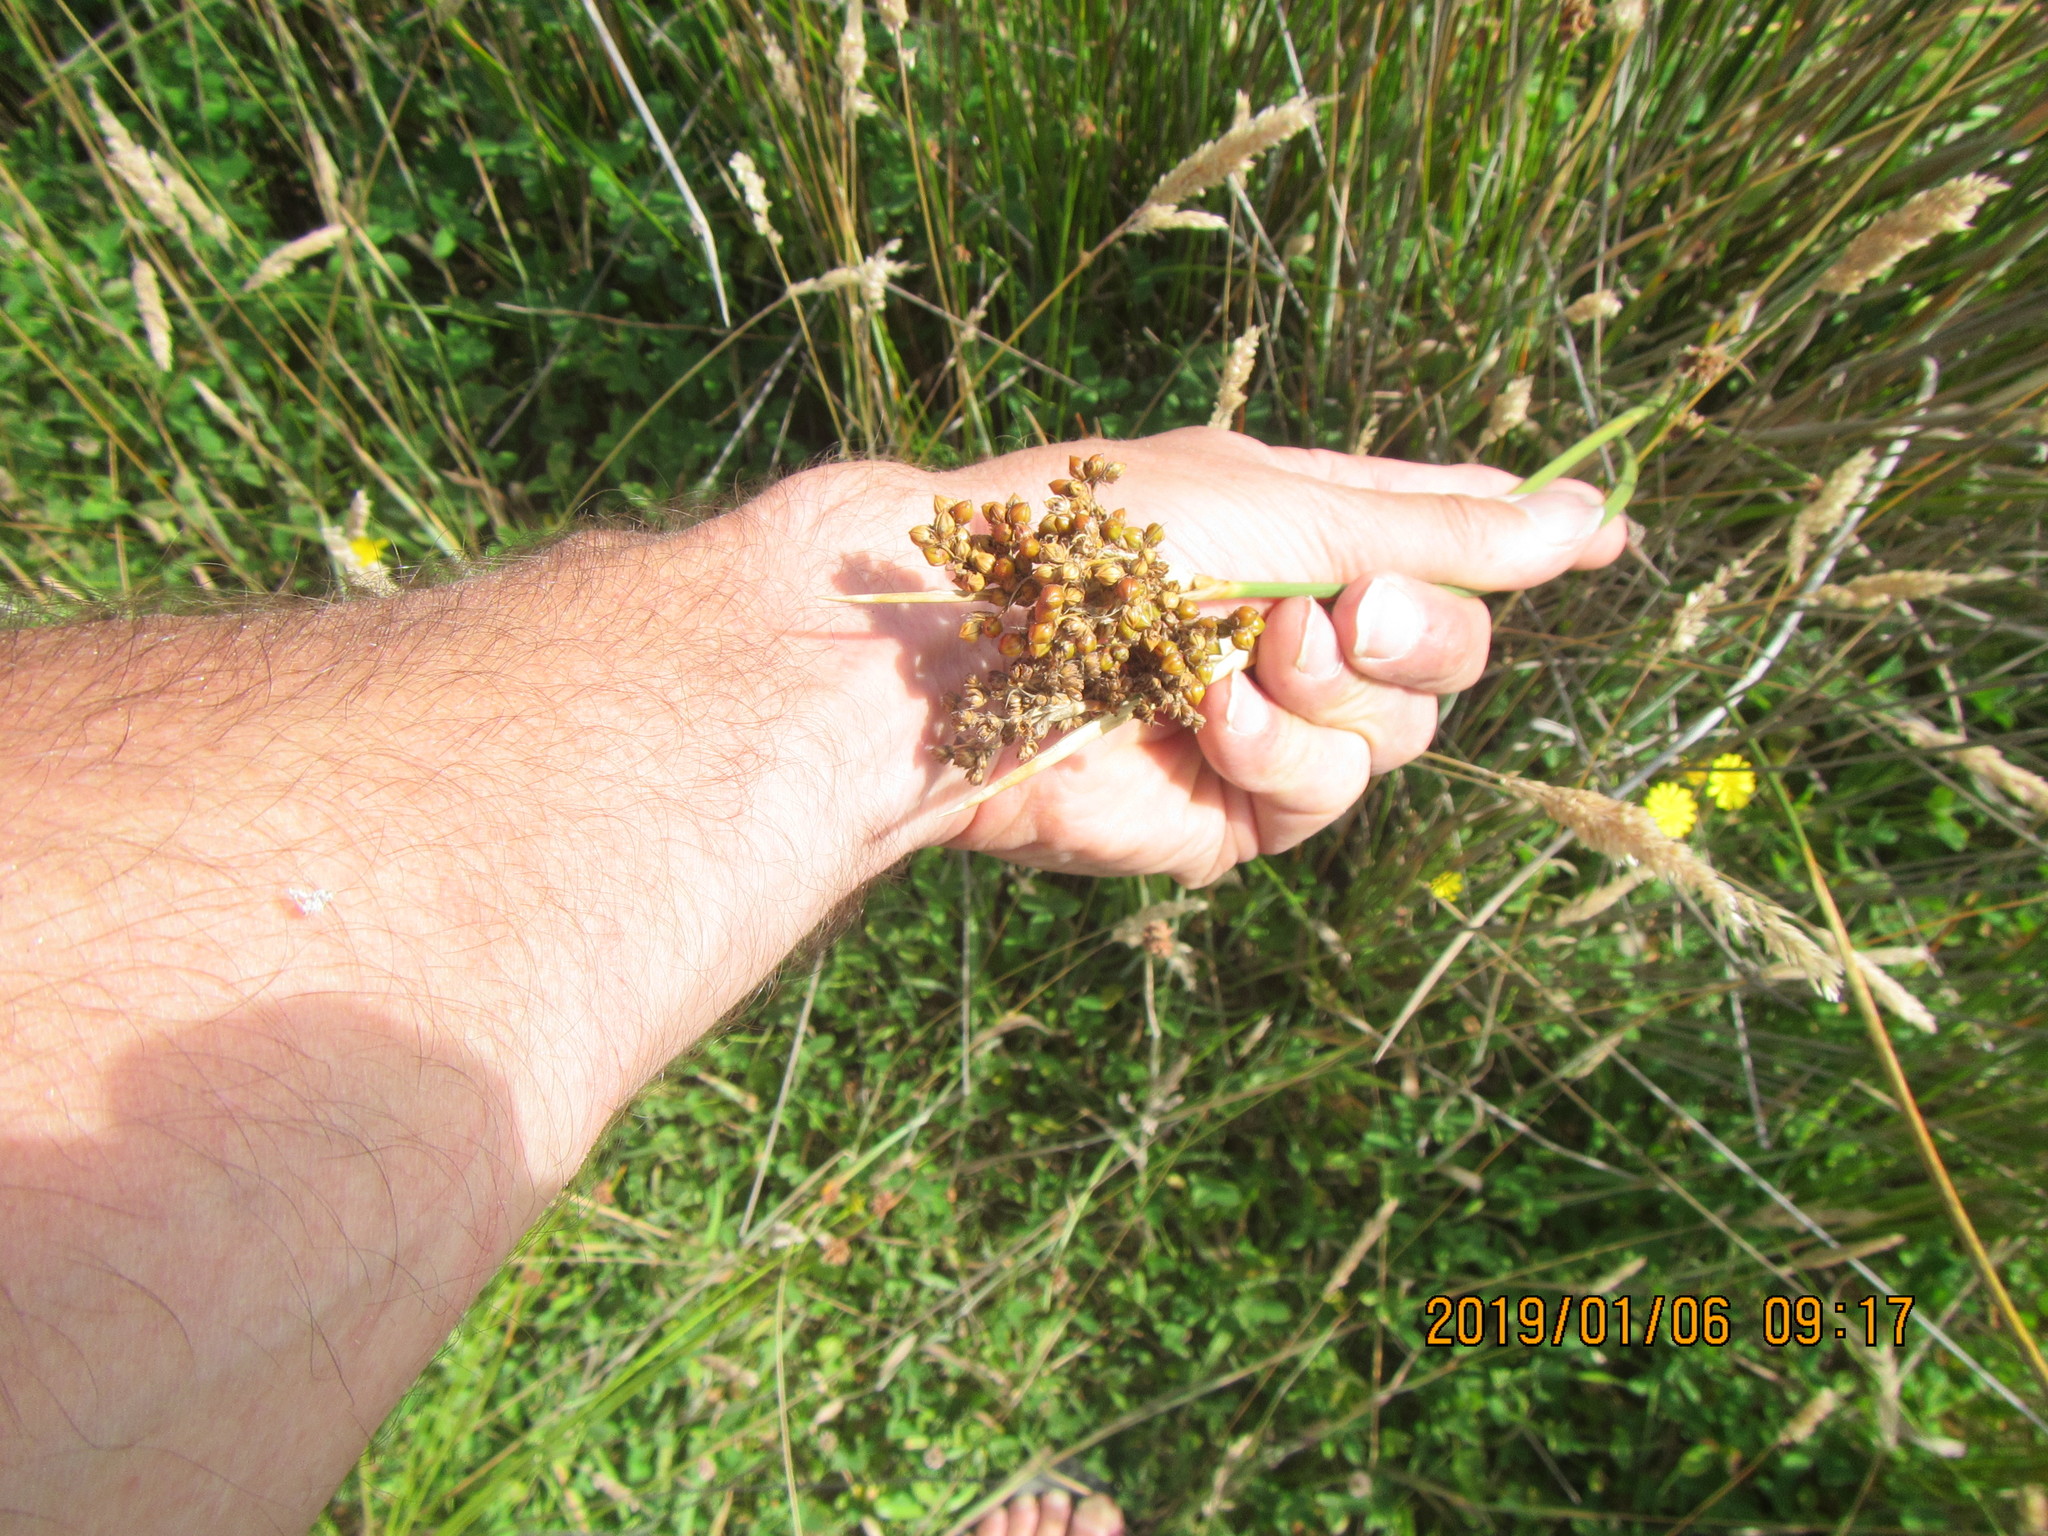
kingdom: Plantae
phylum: Tracheophyta
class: Liliopsida
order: Poales
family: Juncaceae
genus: Juncus
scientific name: Juncus acutus
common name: Sharp rush
